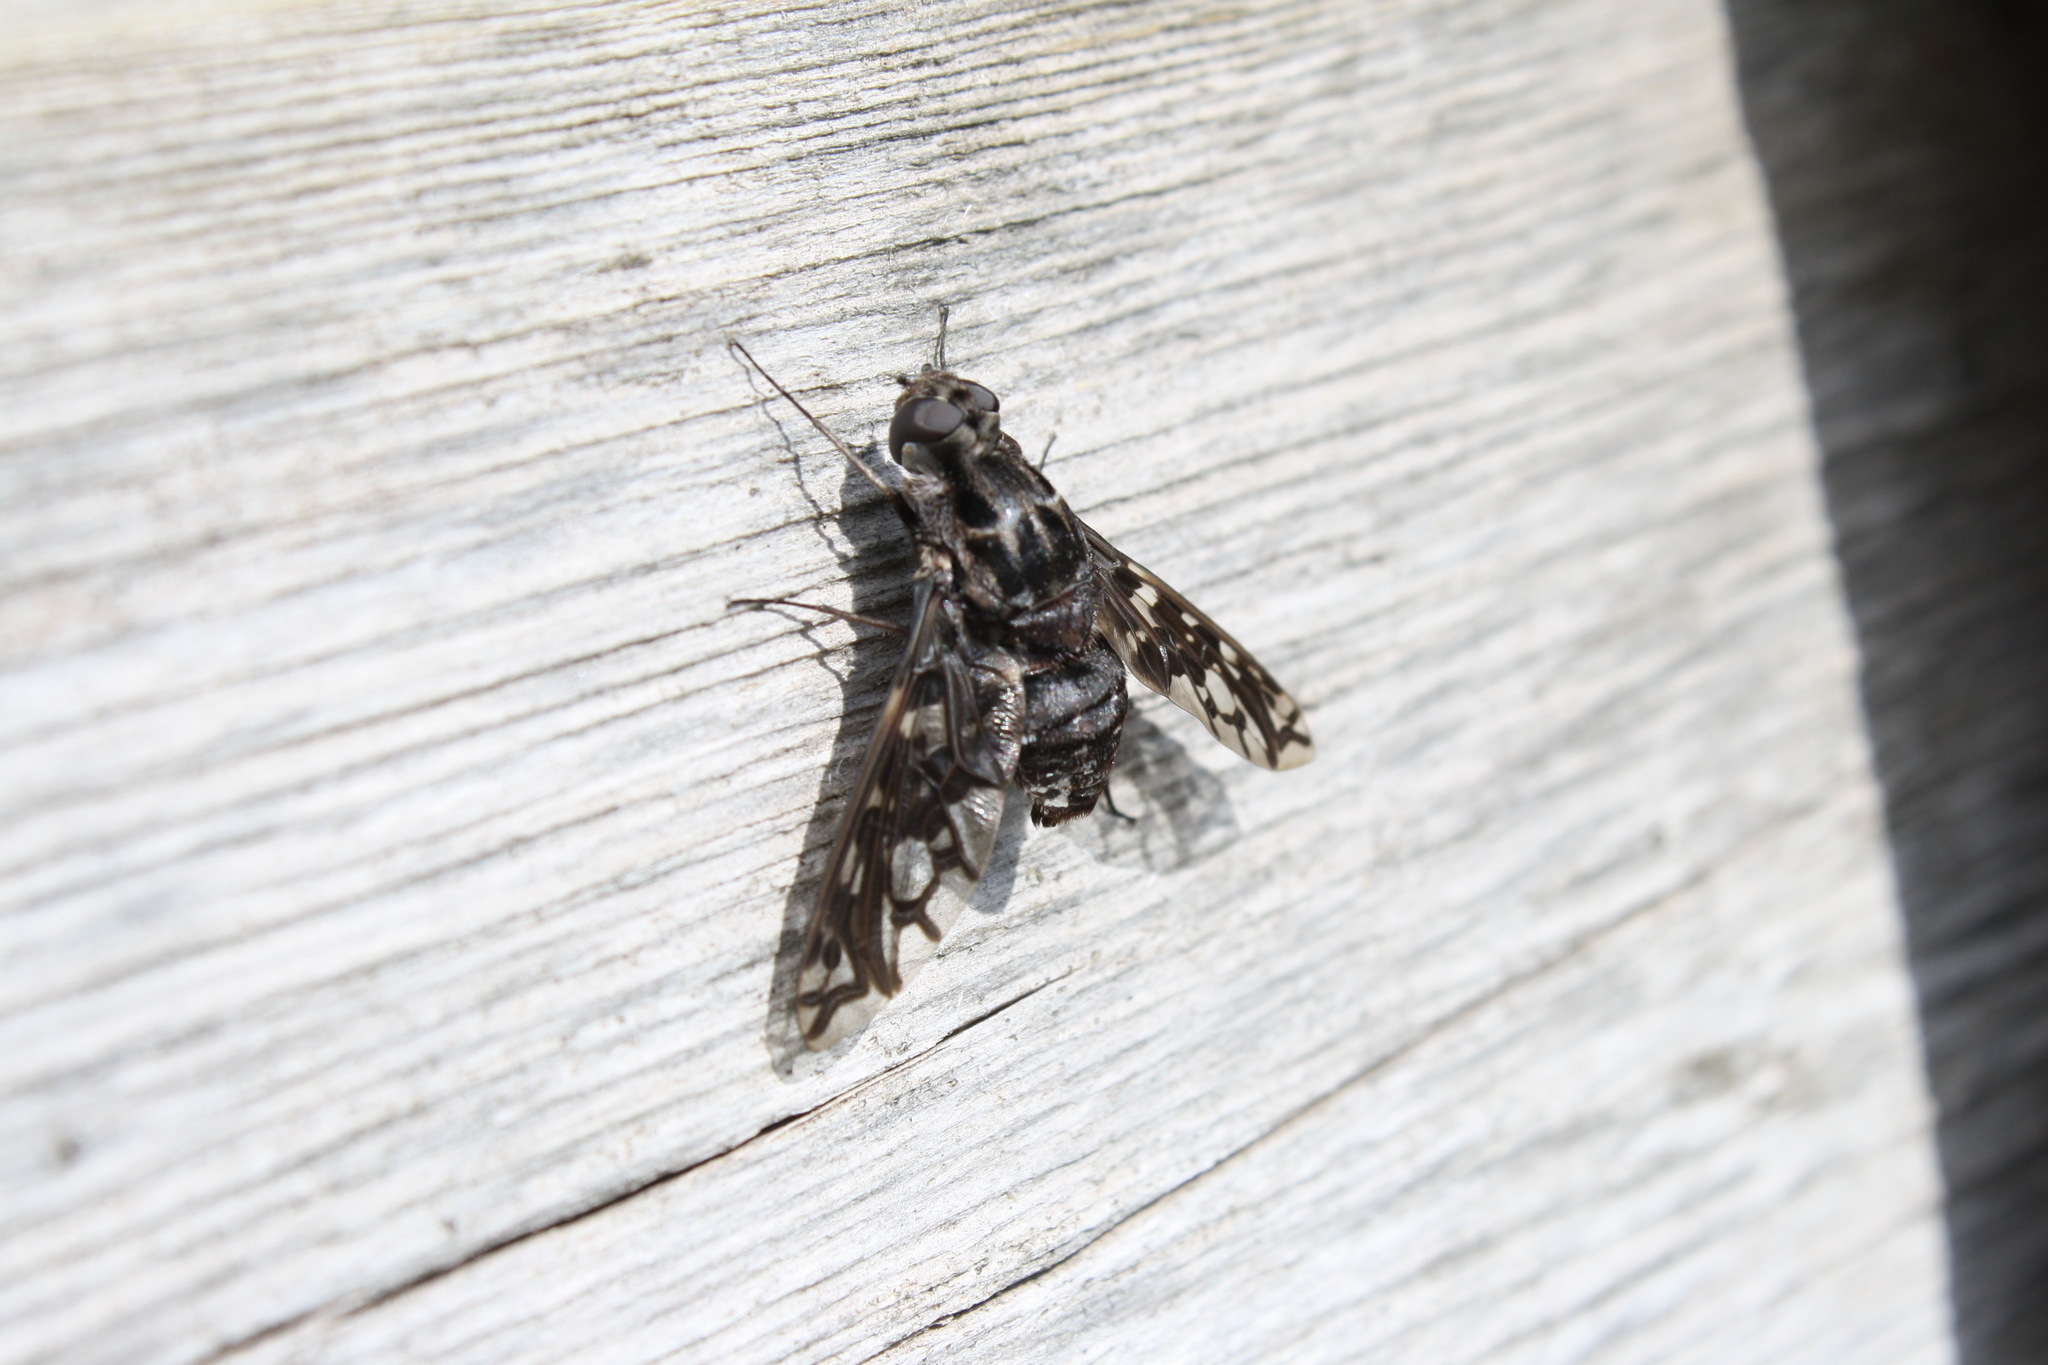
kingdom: Animalia
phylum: Arthropoda
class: Insecta
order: Diptera
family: Bombyliidae
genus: Xenox
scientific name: Xenox tigrinus
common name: Tiger bee fly
